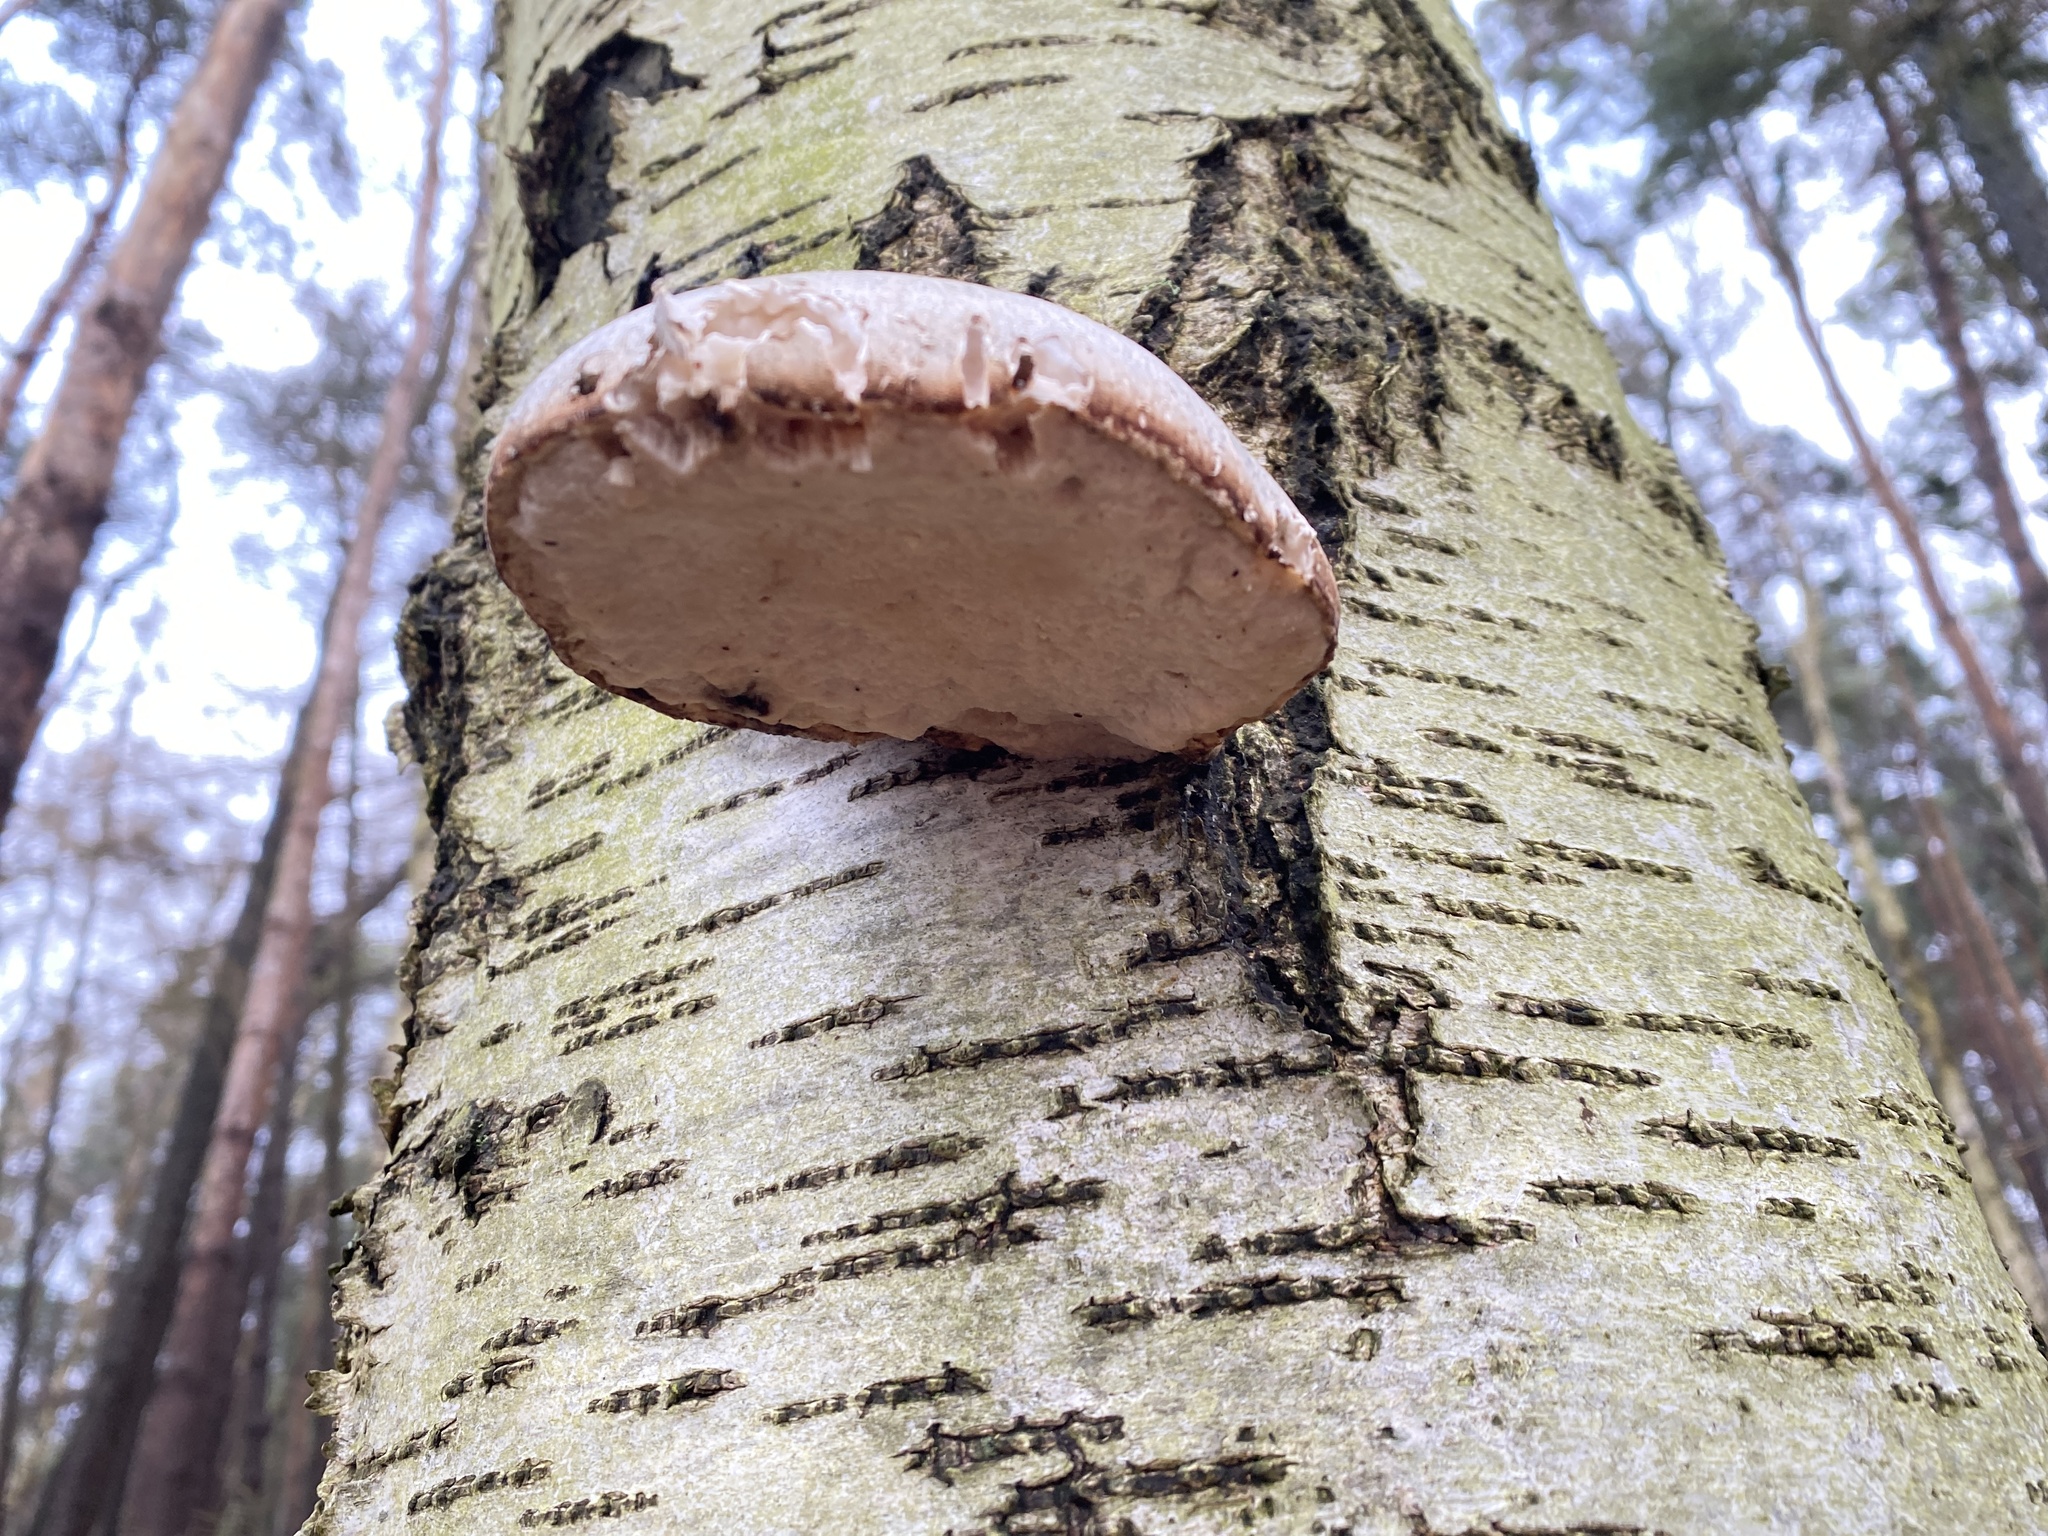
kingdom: Fungi
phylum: Basidiomycota
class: Agaricomycetes
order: Polyporales
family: Fomitopsidaceae
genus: Fomitopsis
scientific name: Fomitopsis betulina
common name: Birch polypore
